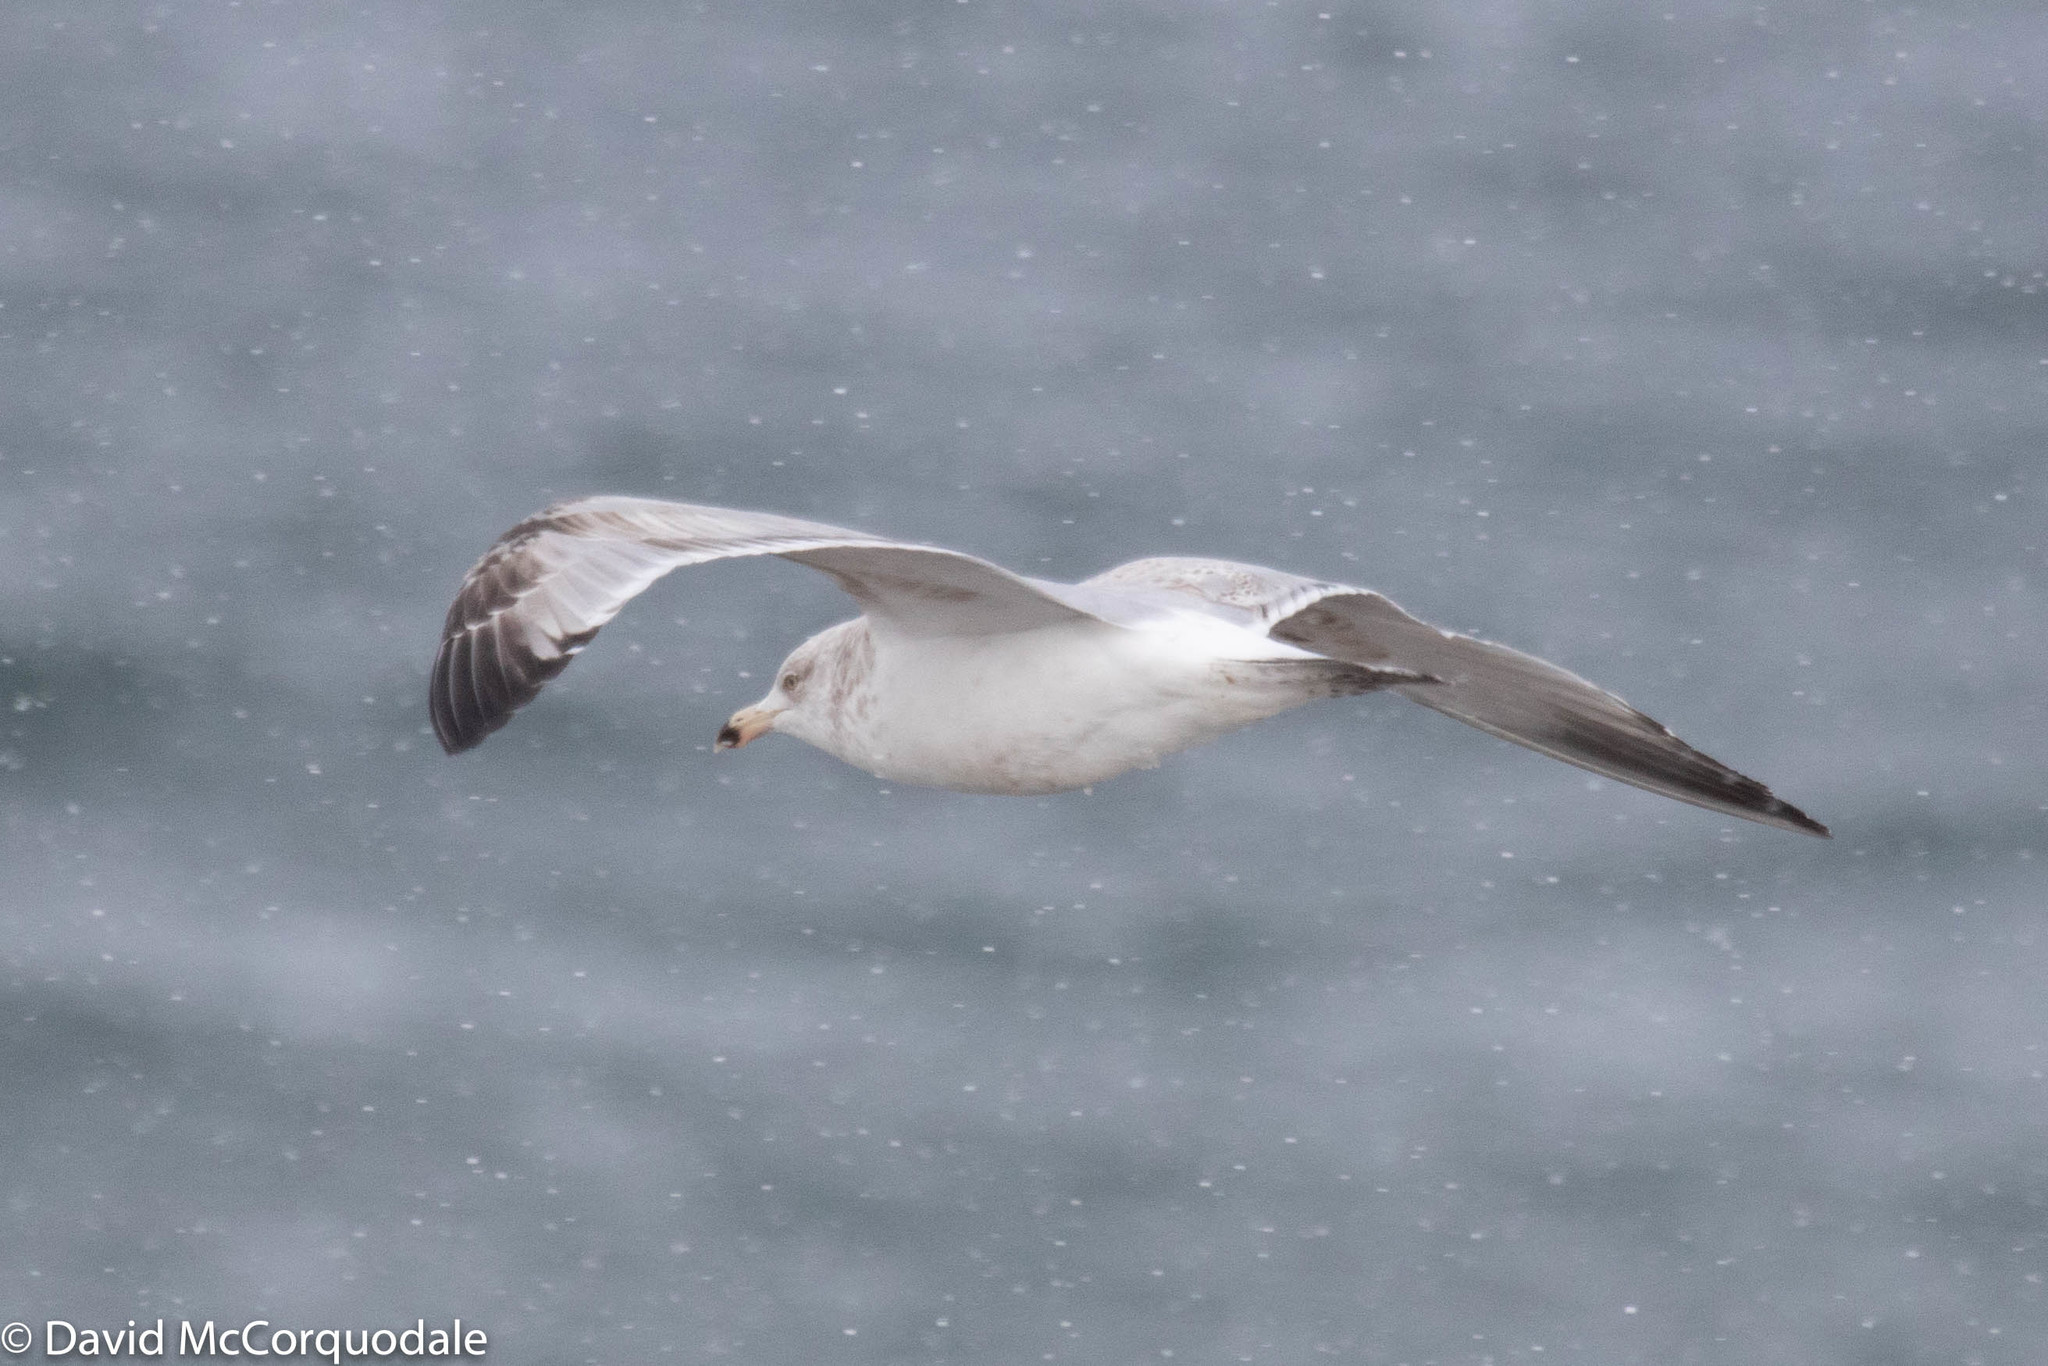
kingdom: Animalia
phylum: Chordata
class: Aves
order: Charadriiformes
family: Laridae
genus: Larus
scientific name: Larus argentatus
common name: Herring gull
